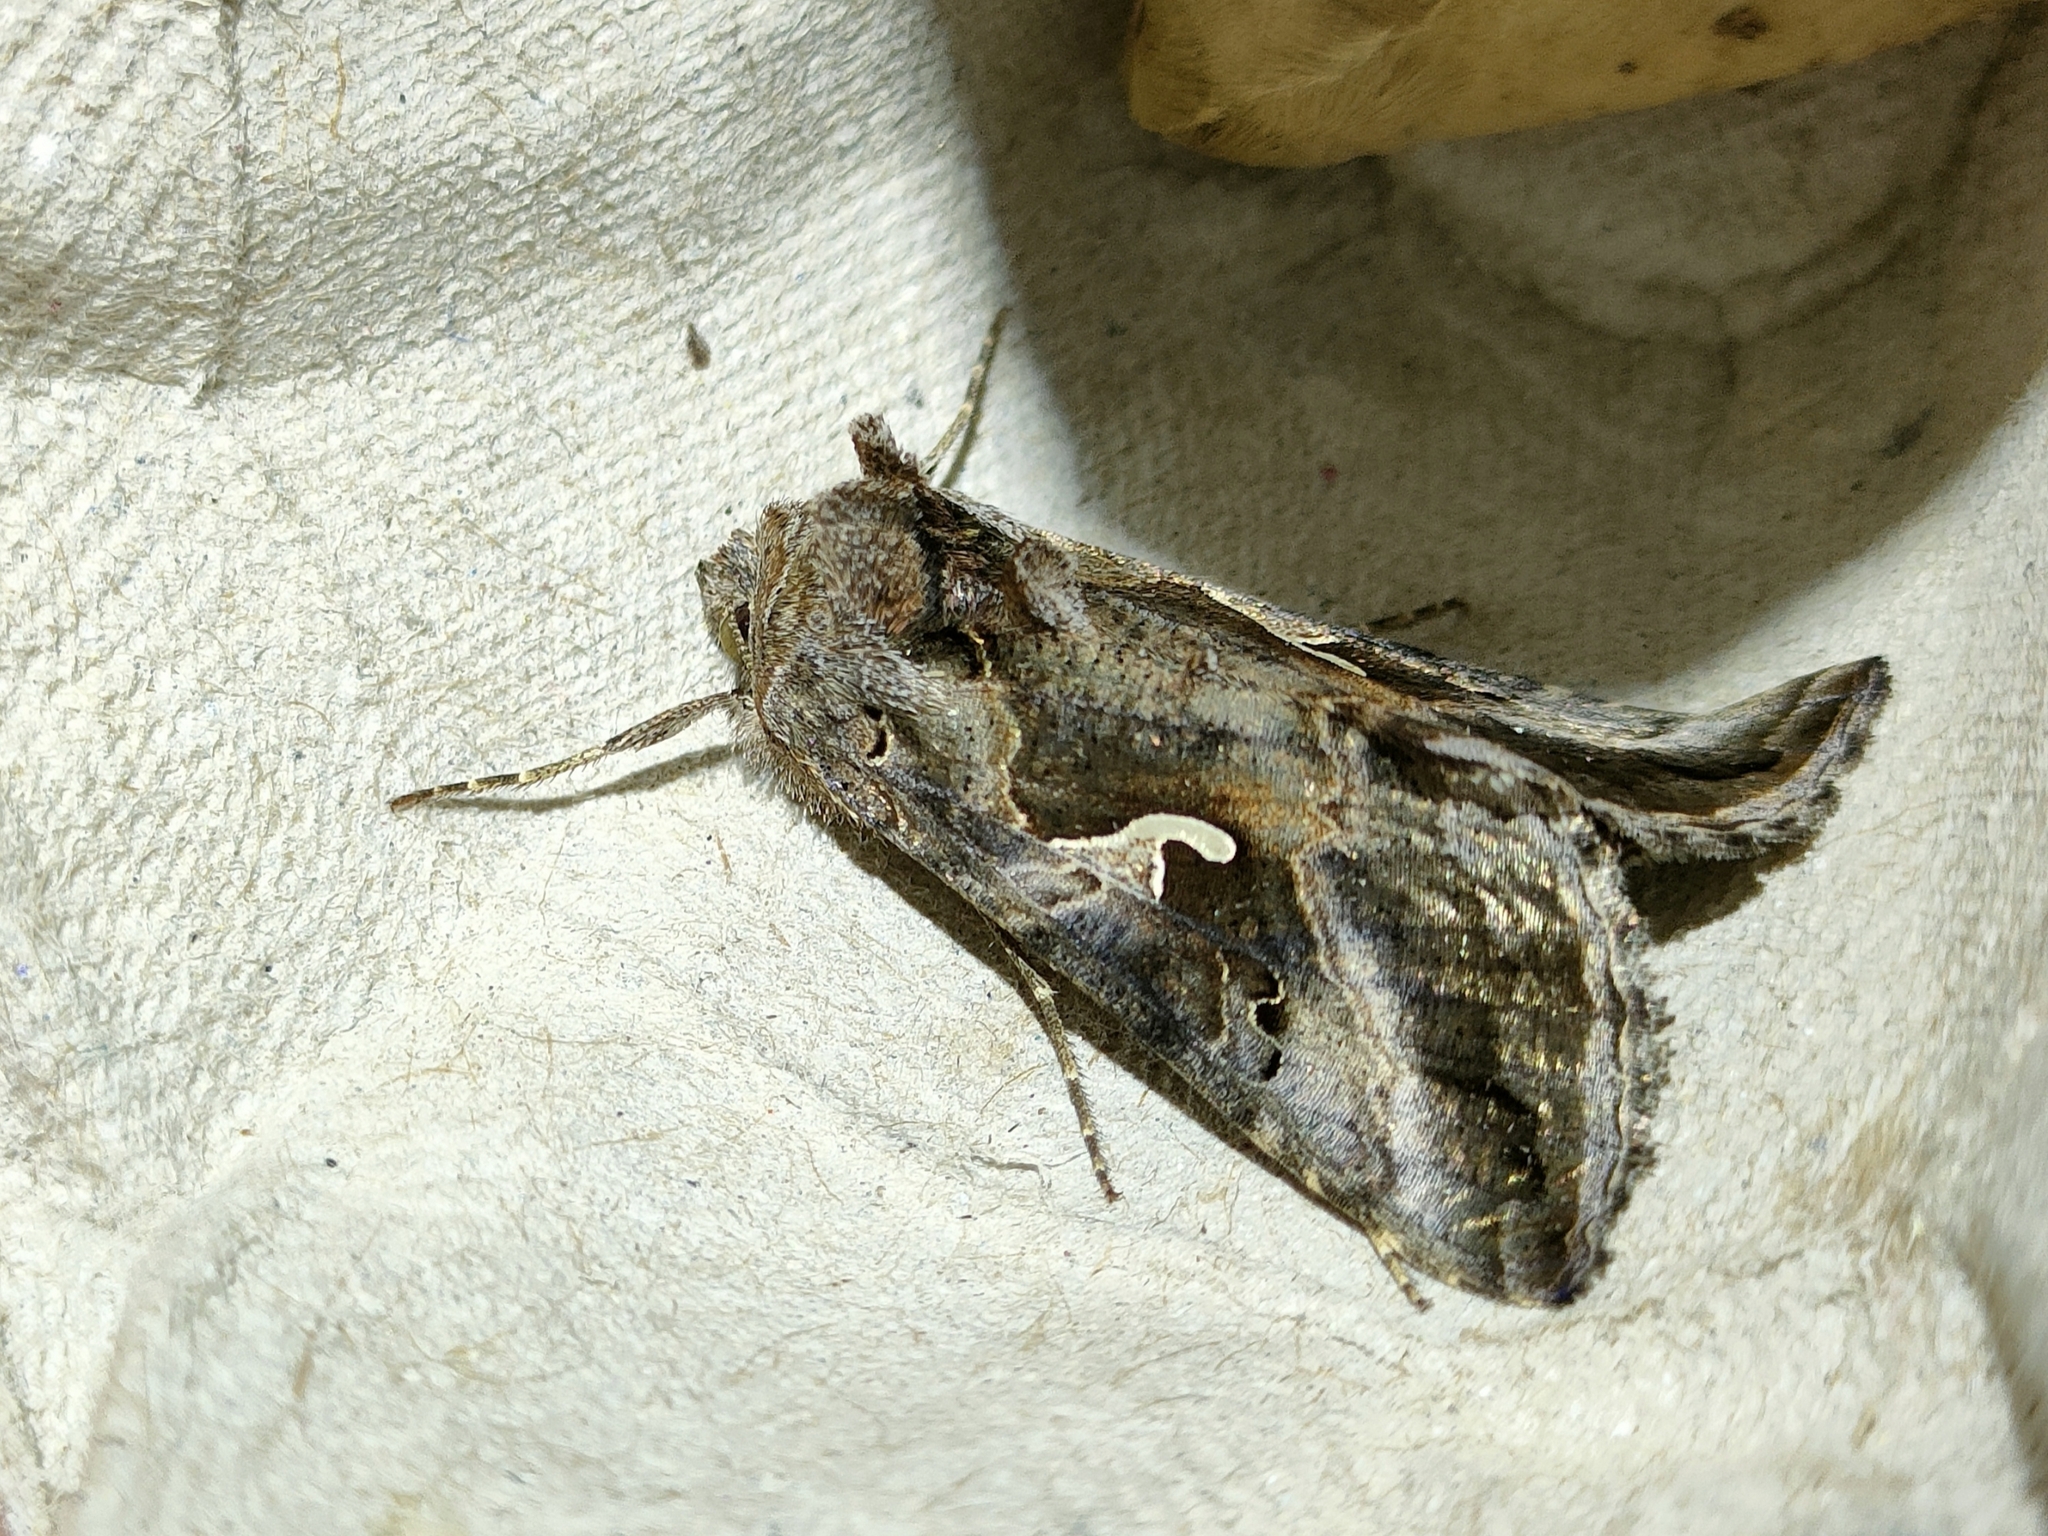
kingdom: Animalia
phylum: Arthropoda
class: Insecta
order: Lepidoptera
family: Noctuidae
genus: Autographa
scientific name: Autographa gamma
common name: Silver y
